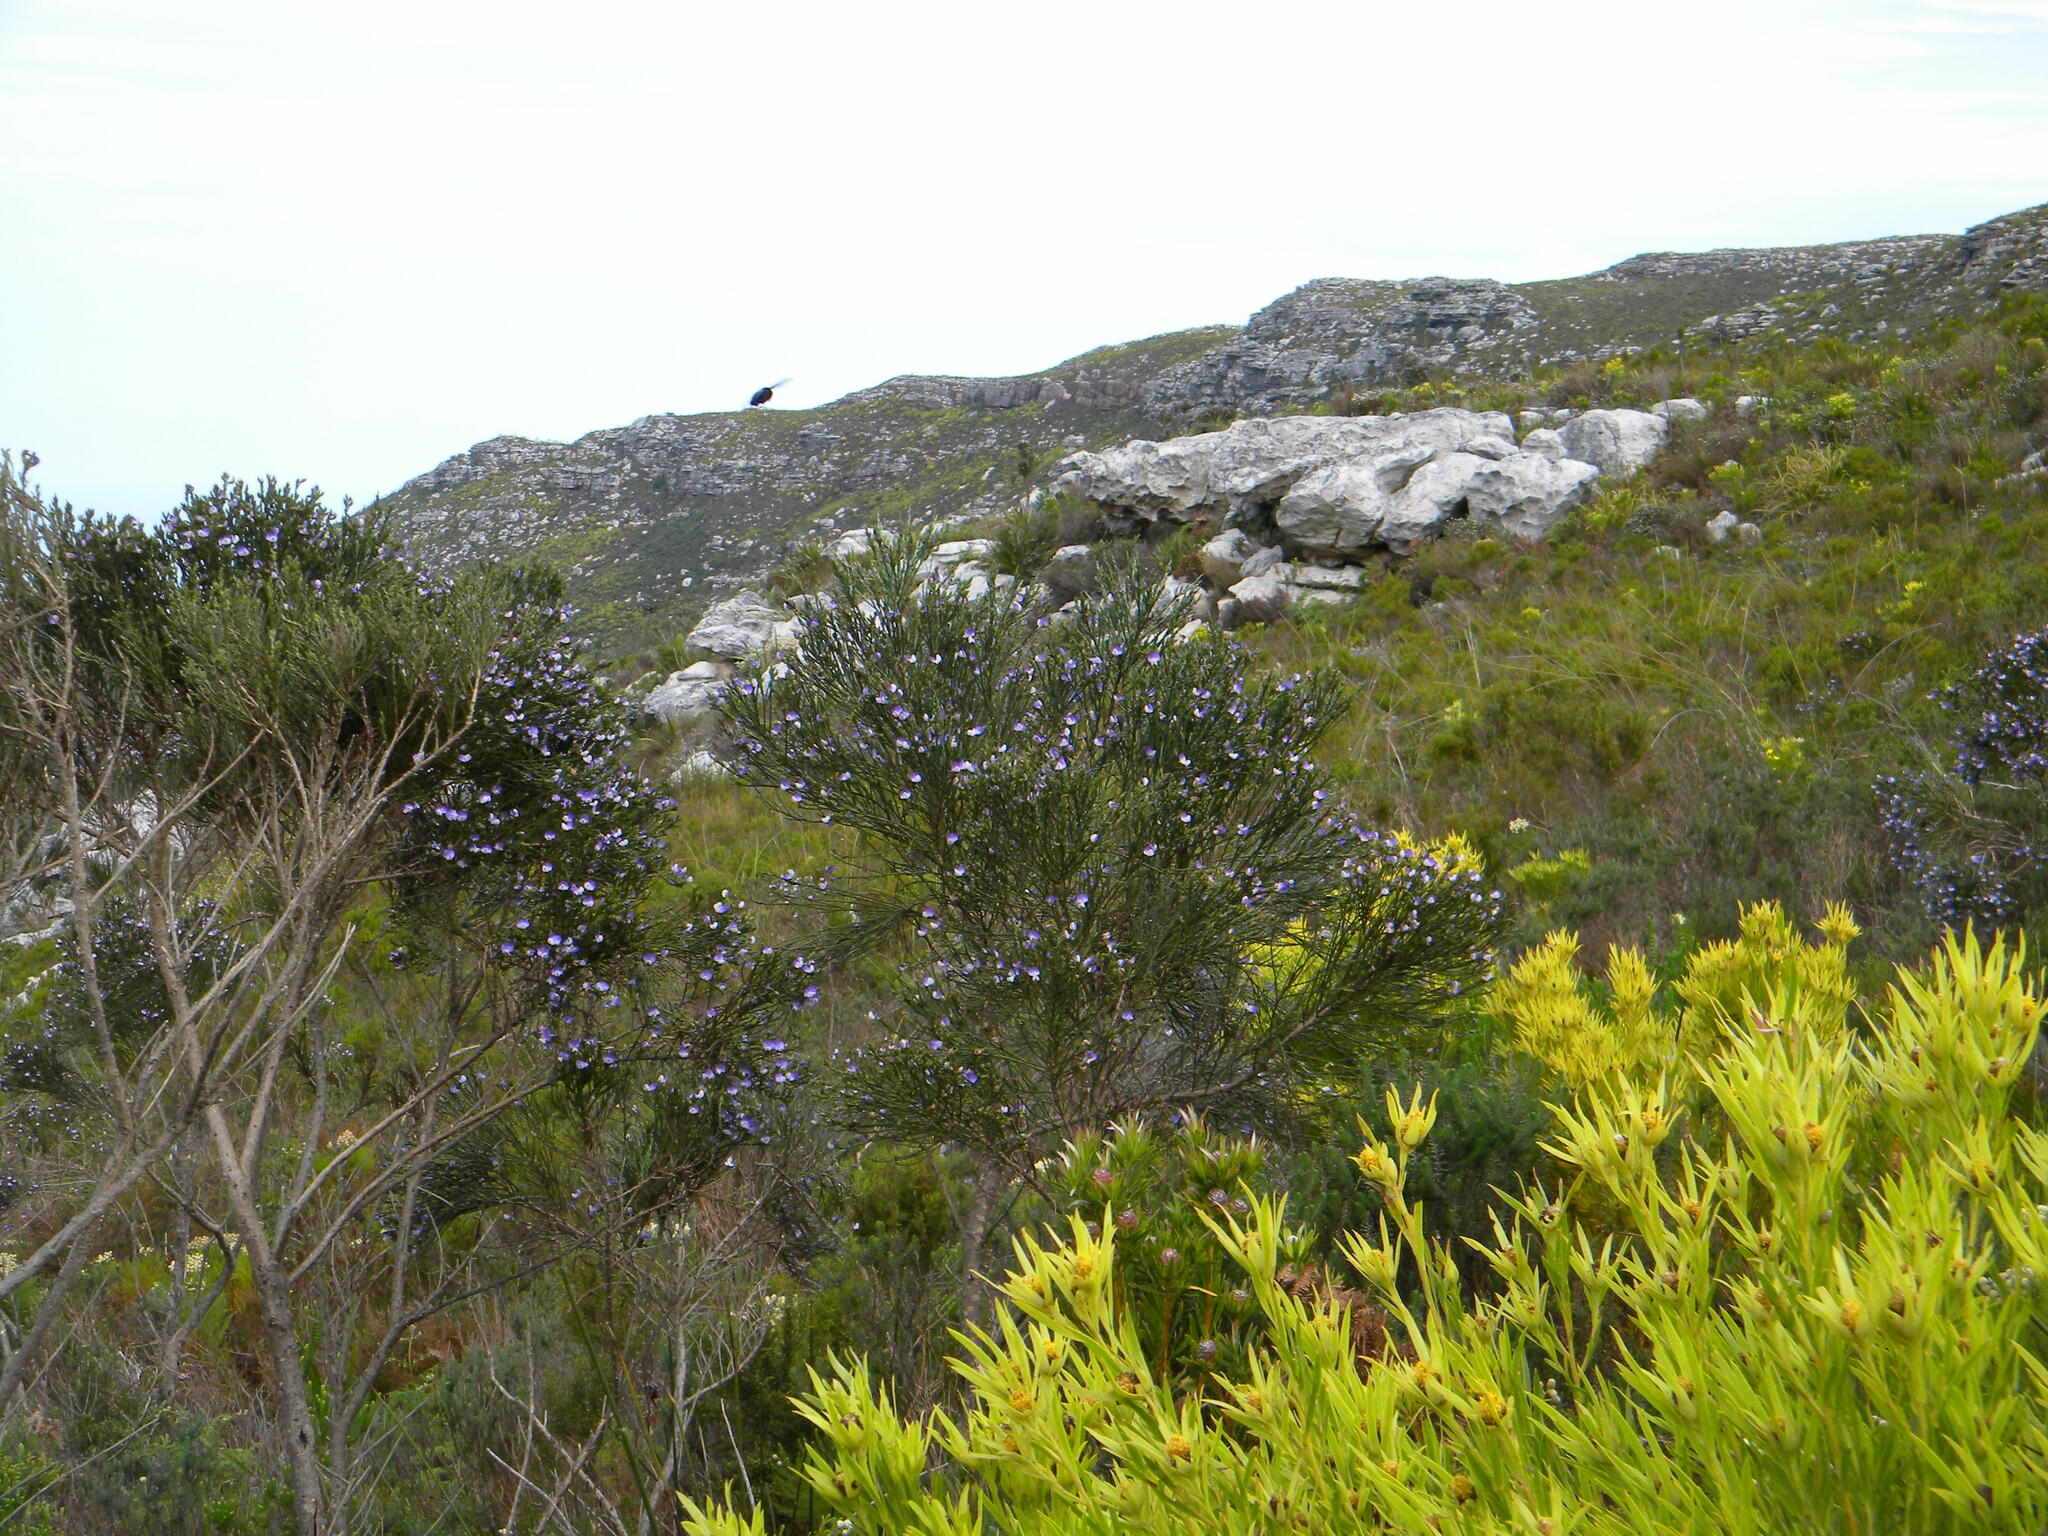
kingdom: Plantae
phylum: Tracheophyta
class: Magnoliopsida
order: Fabales
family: Fabaceae
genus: Psoralea
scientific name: Psoralea congesta
